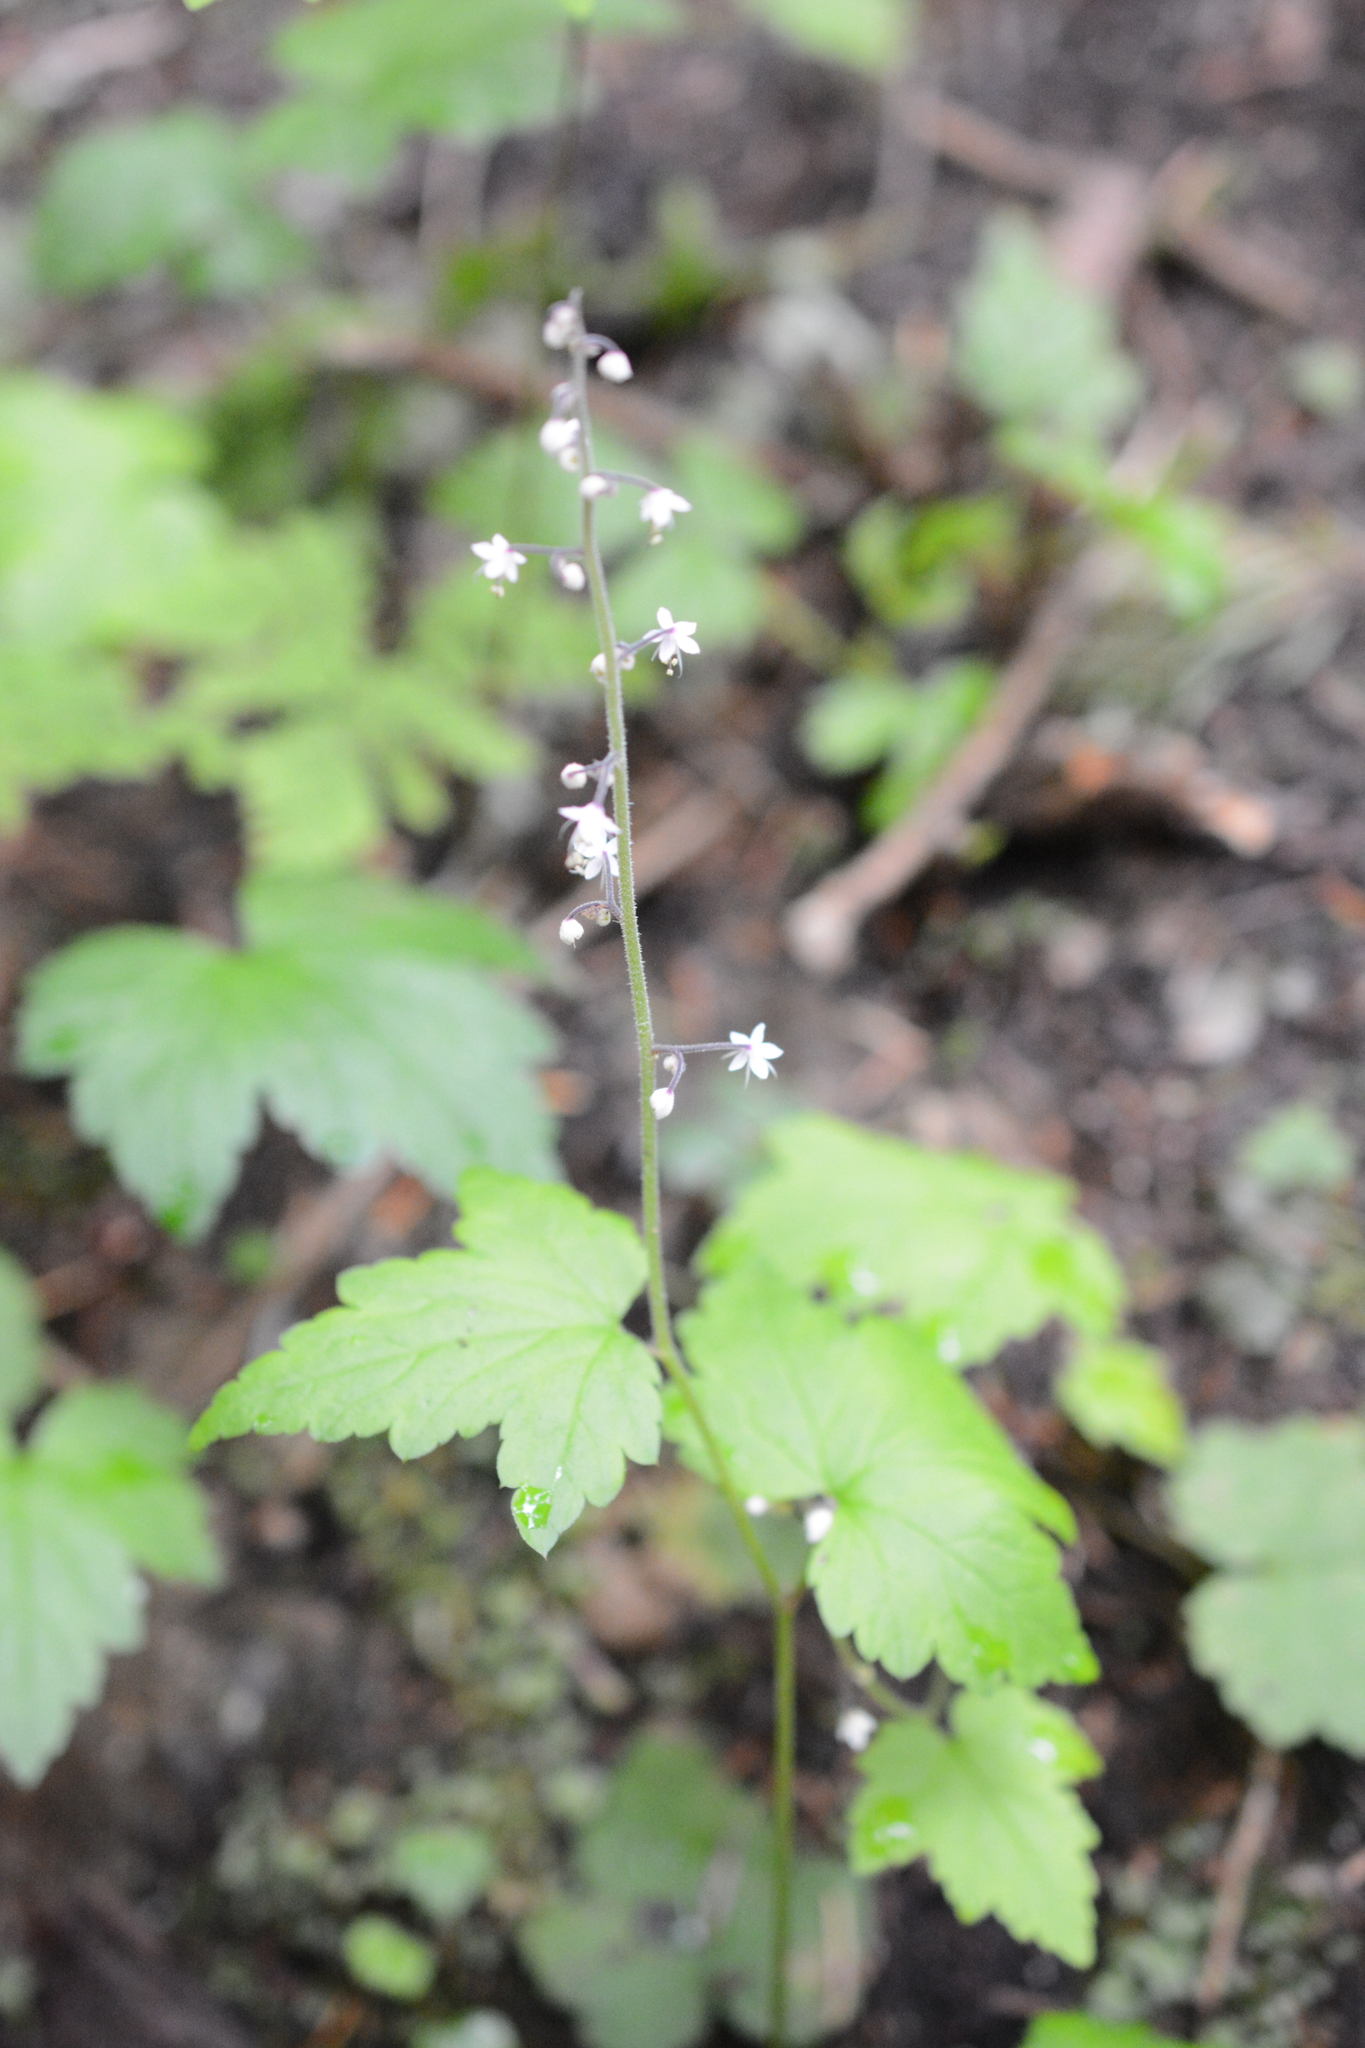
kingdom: Plantae
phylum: Tracheophyta
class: Magnoliopsida
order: Saxifragales
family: Saxifragaceae
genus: Tiarella
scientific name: Tiarella trifoliata
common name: Sugar-scoop
